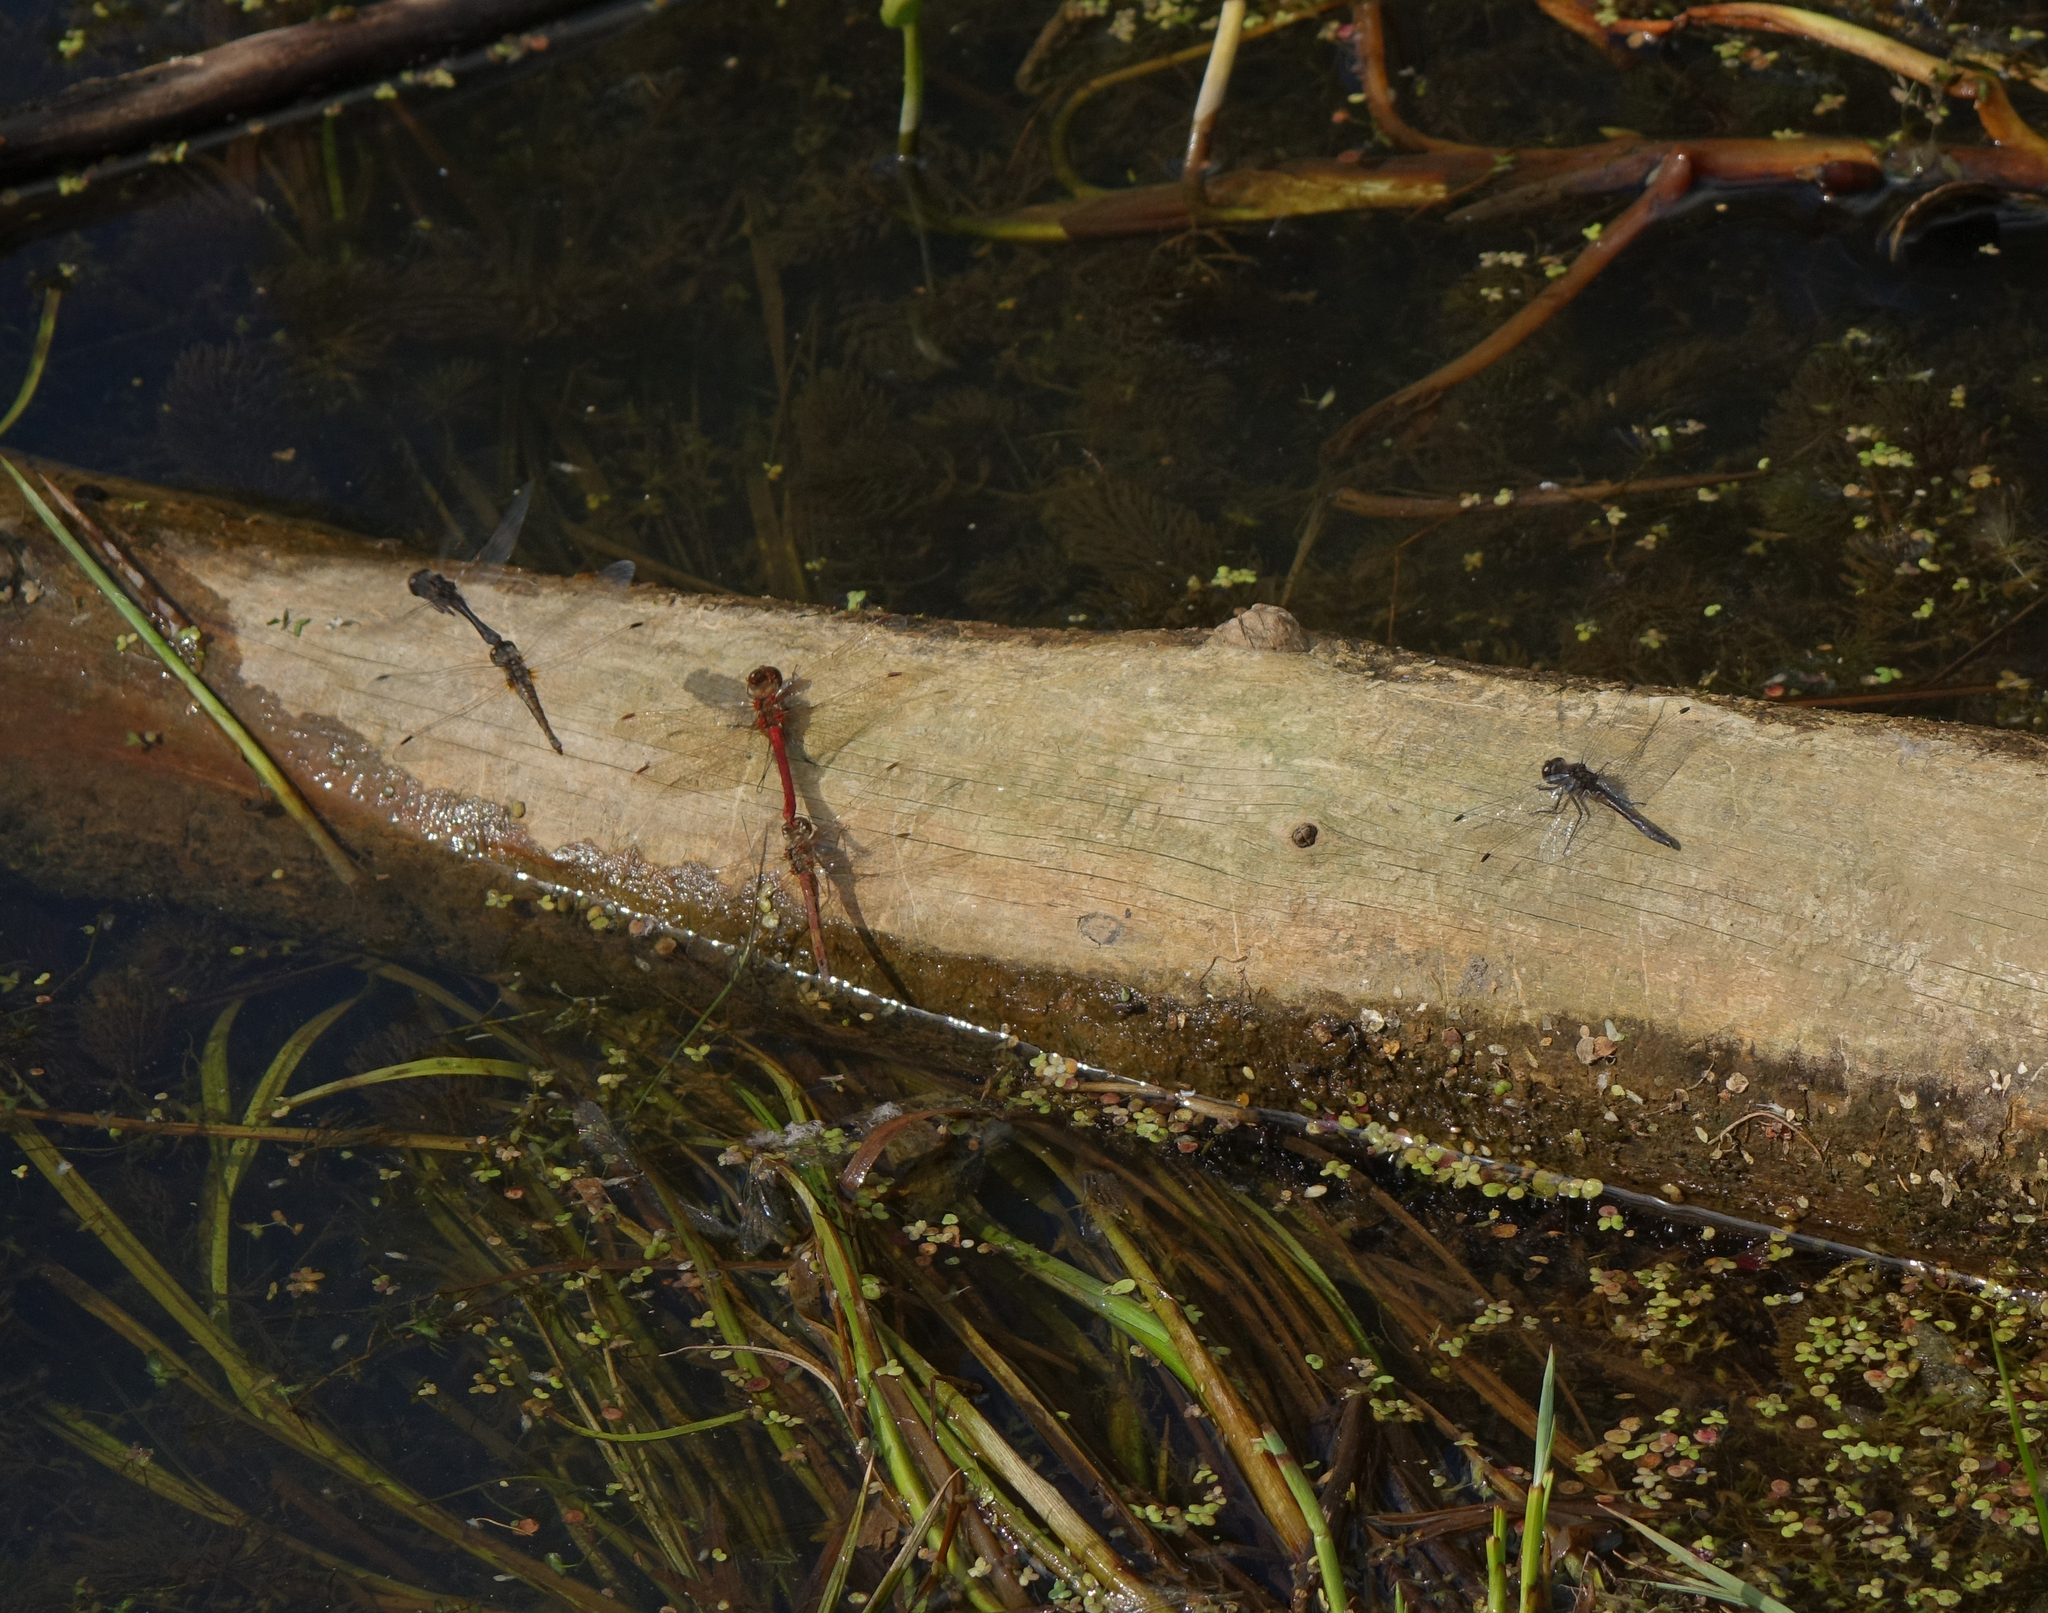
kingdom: Animalia
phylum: Arthropoda
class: Insecta
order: Odonata
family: Libellulidae
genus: Sympetrum
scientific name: Sympetrum vulgatum
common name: Vagrant darter
